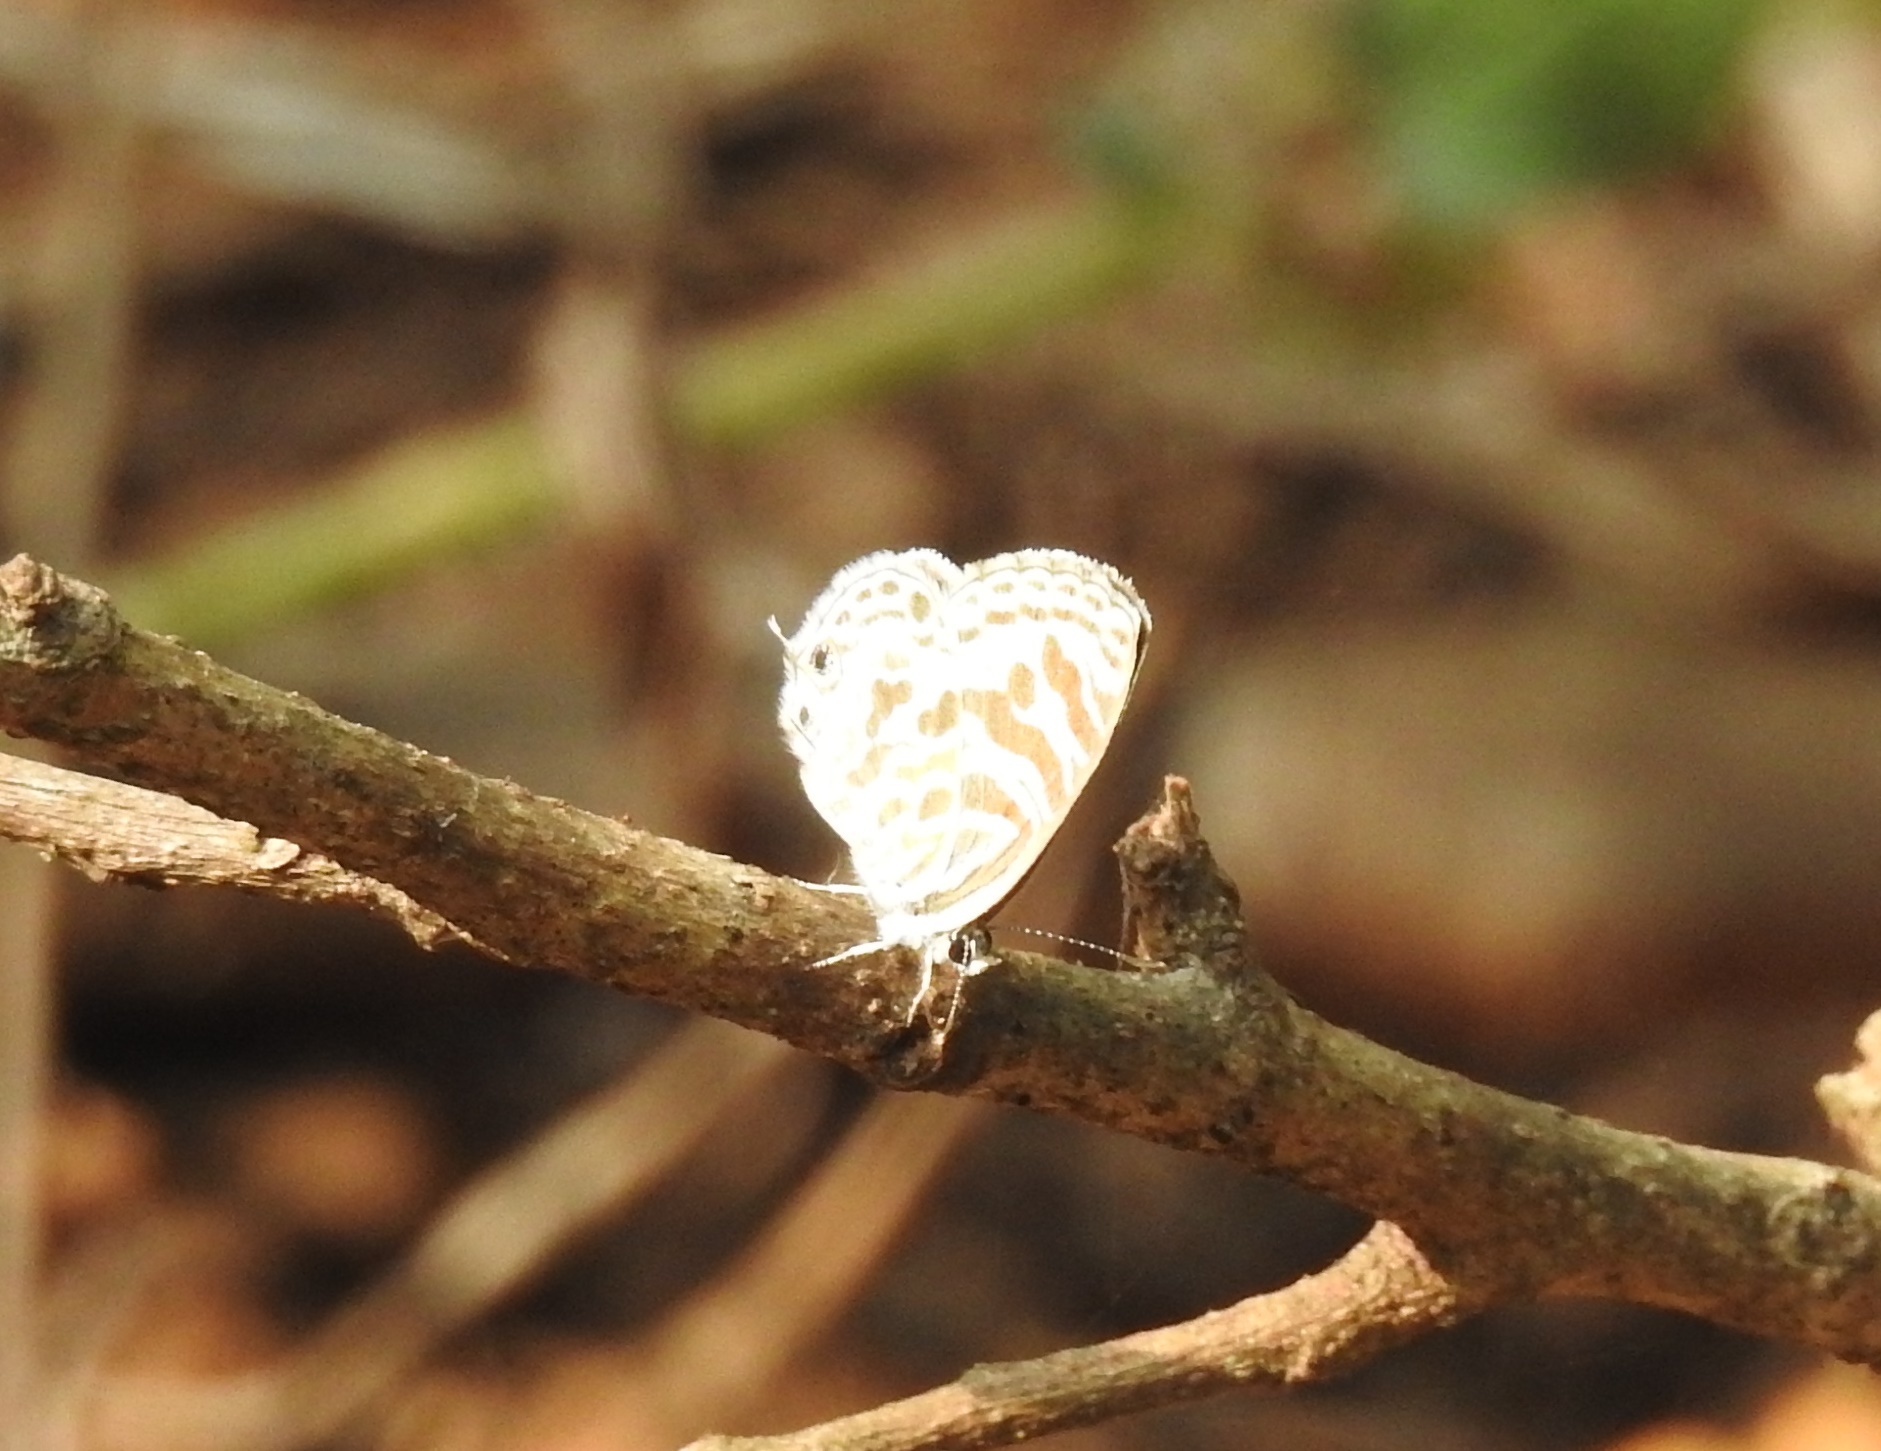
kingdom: Animalia
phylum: Arthropoda
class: Insecta
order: Lepidoptera
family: Lycaenidae
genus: Leptotes
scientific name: Leptotes plinius
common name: Zebra blue
